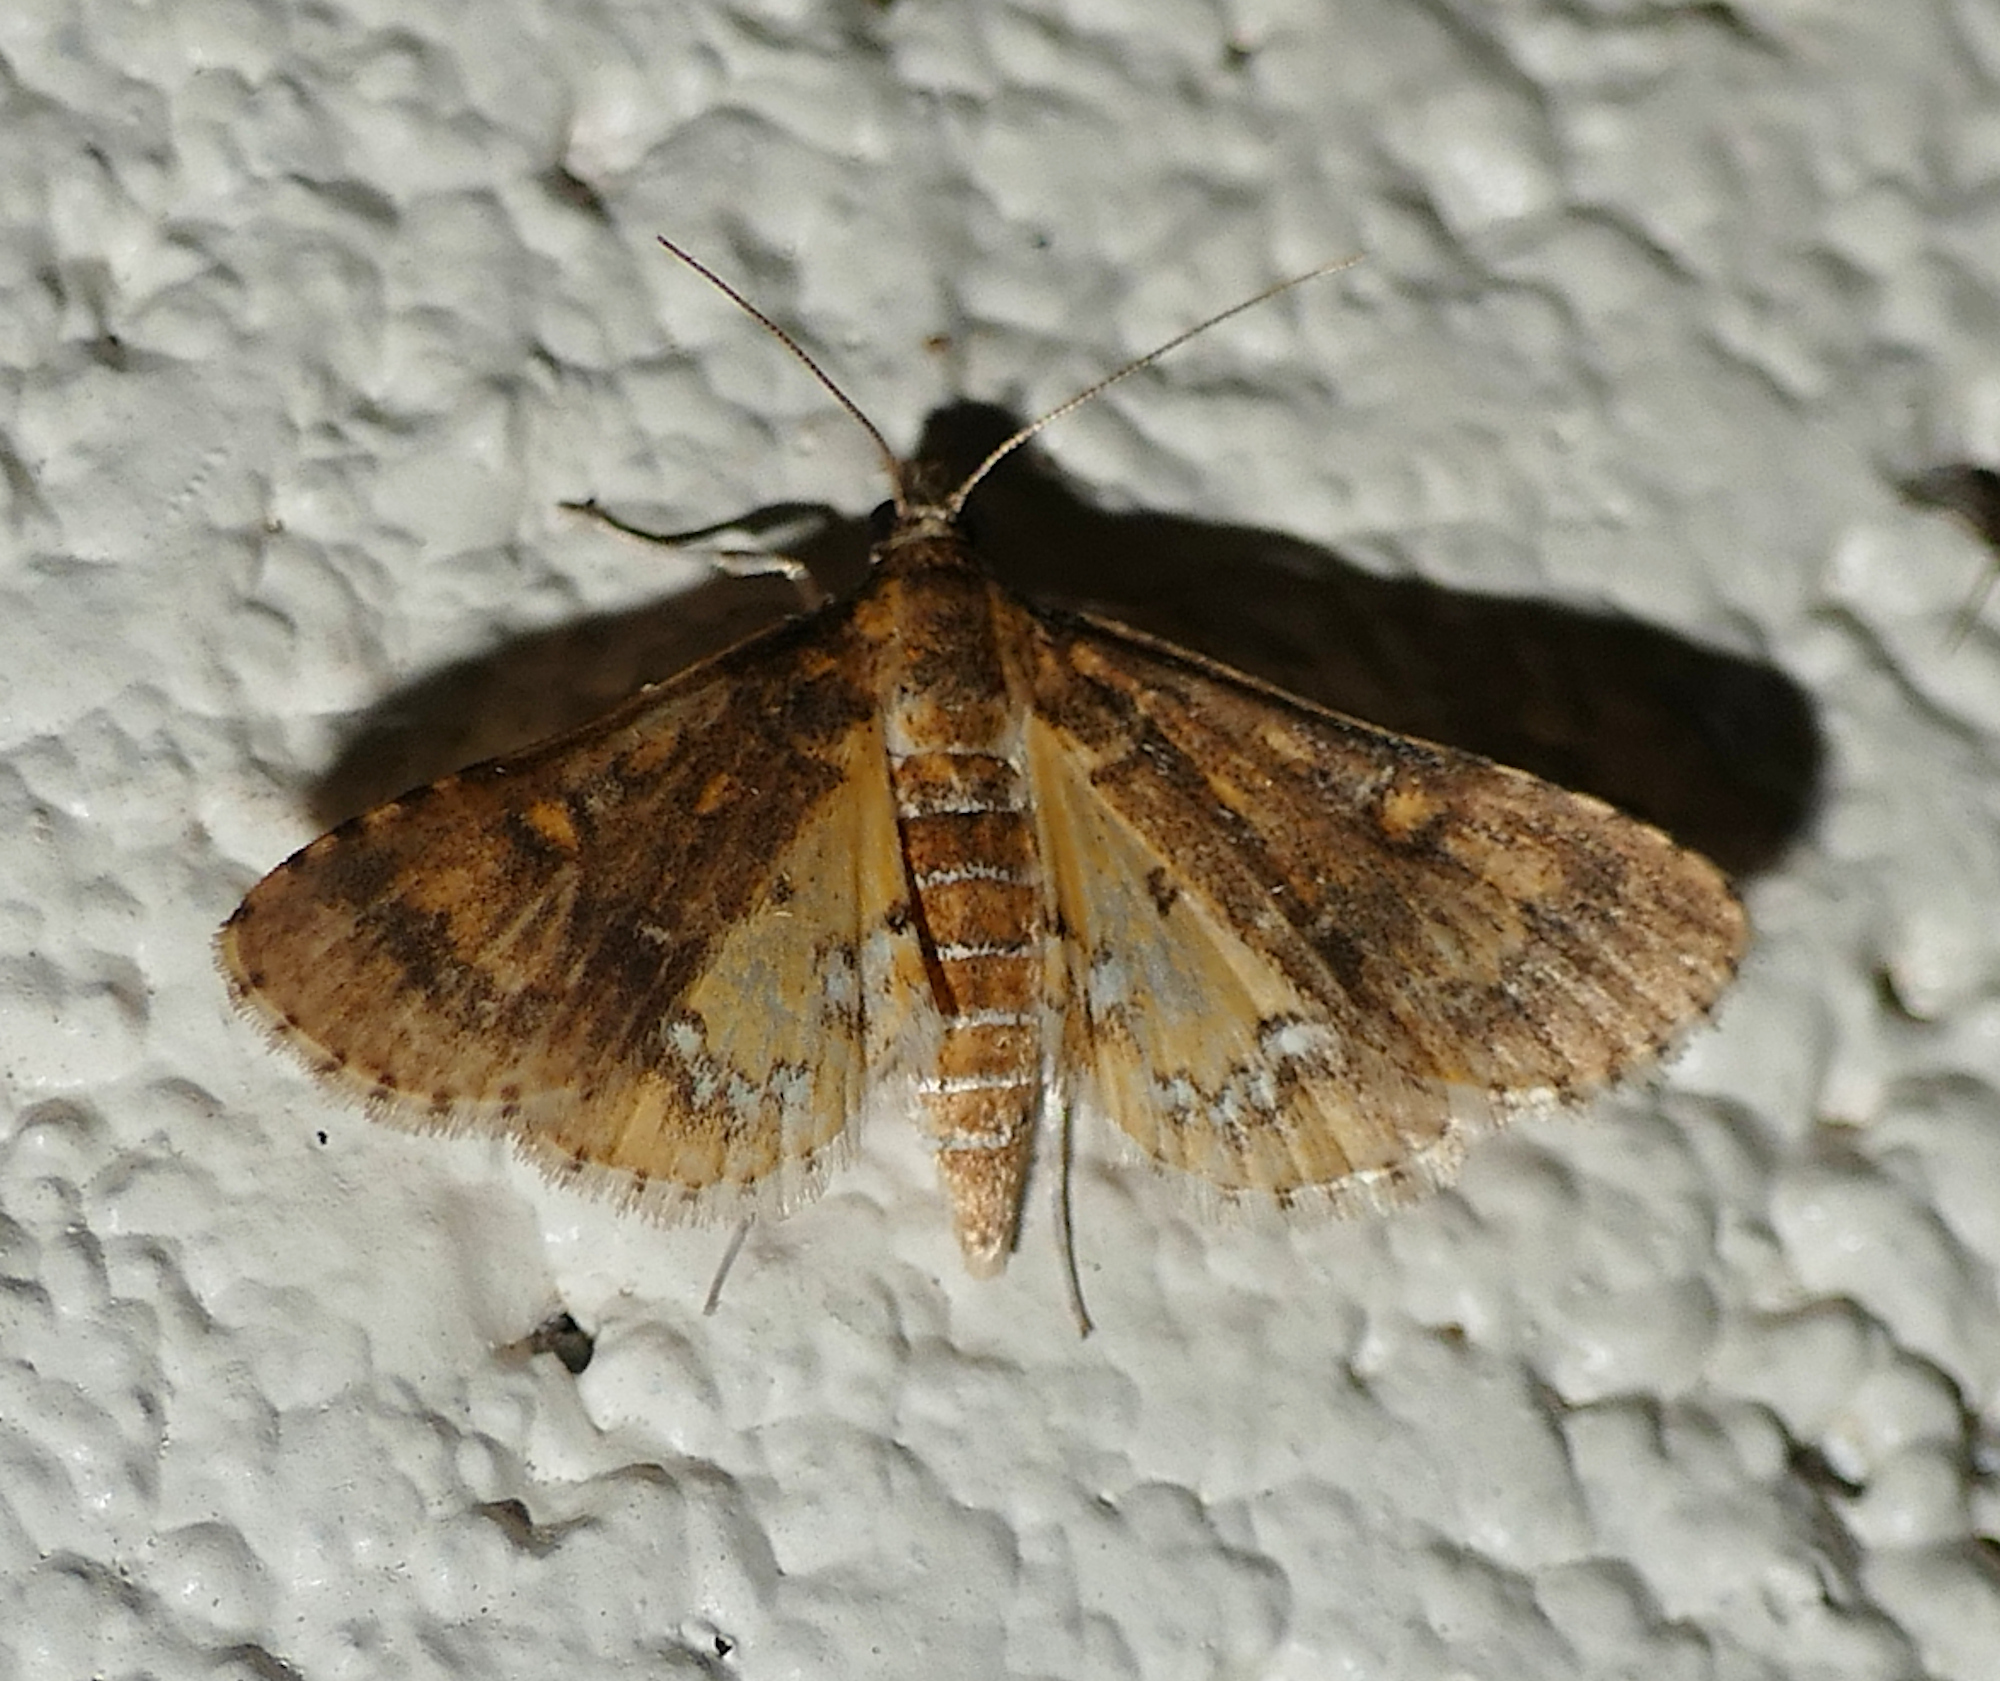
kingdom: Animalia
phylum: Arthropoda
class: Insecta
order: Lepidoptera
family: Crambidae
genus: Niphograpta
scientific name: Niphograpta albiguttalis
